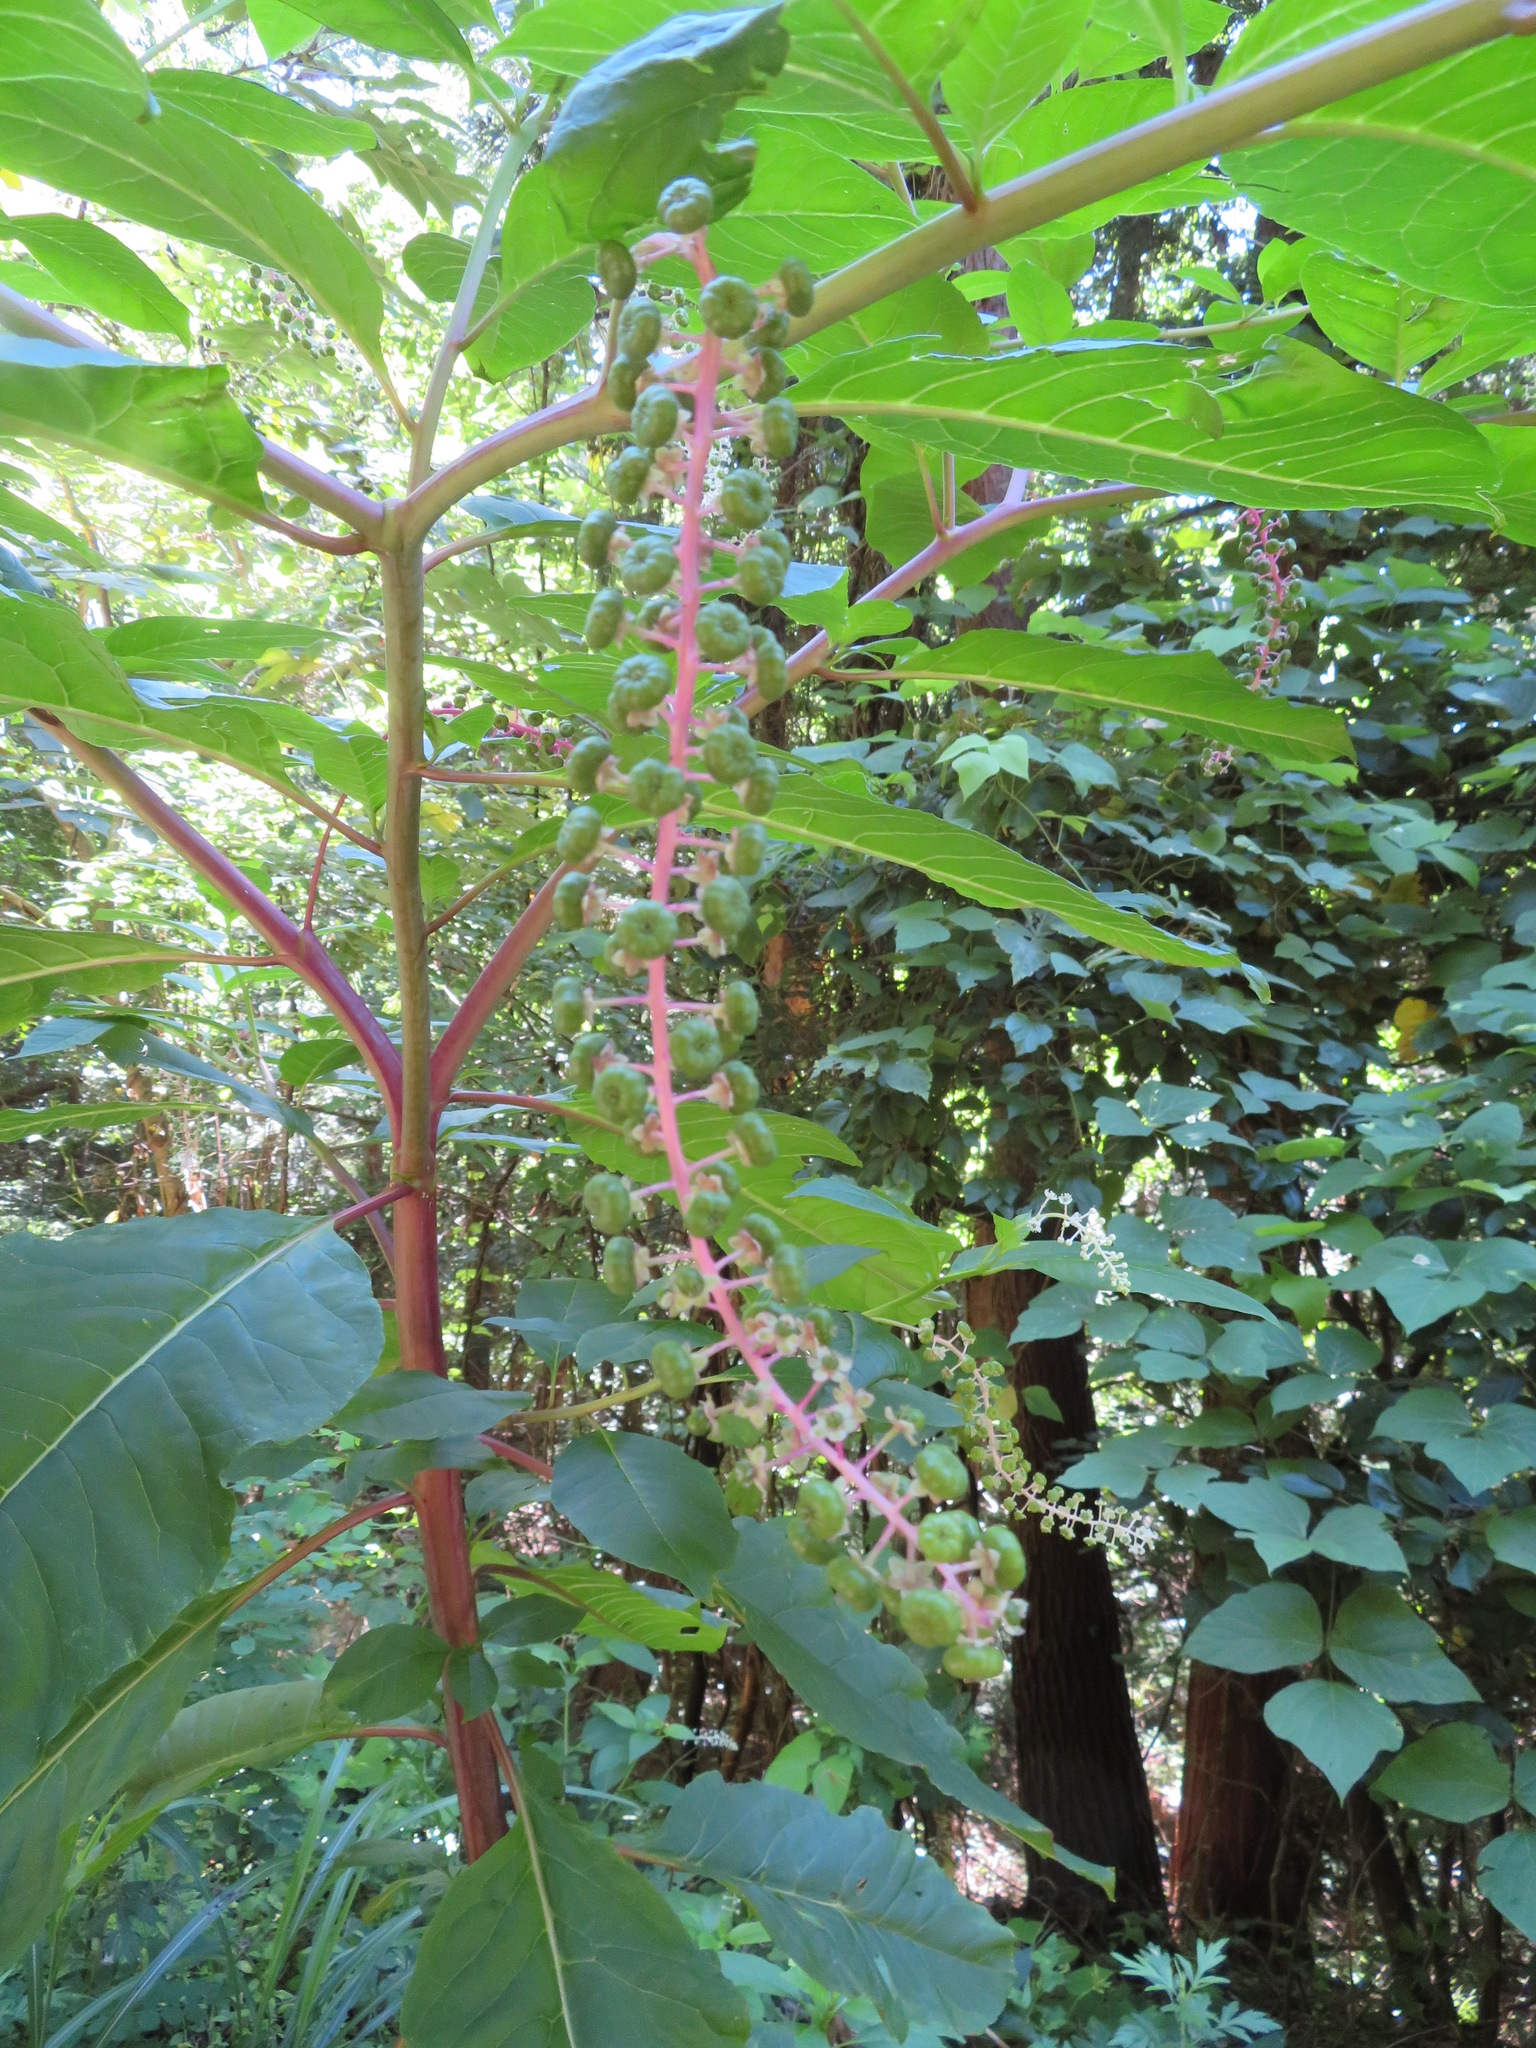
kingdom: Plantae
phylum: Tracheophyta
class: Magnoliopsida
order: Caryophyllales
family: Phytolaccaceae
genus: Phytolacca
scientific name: Phytolacca americana
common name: American pokeweed
